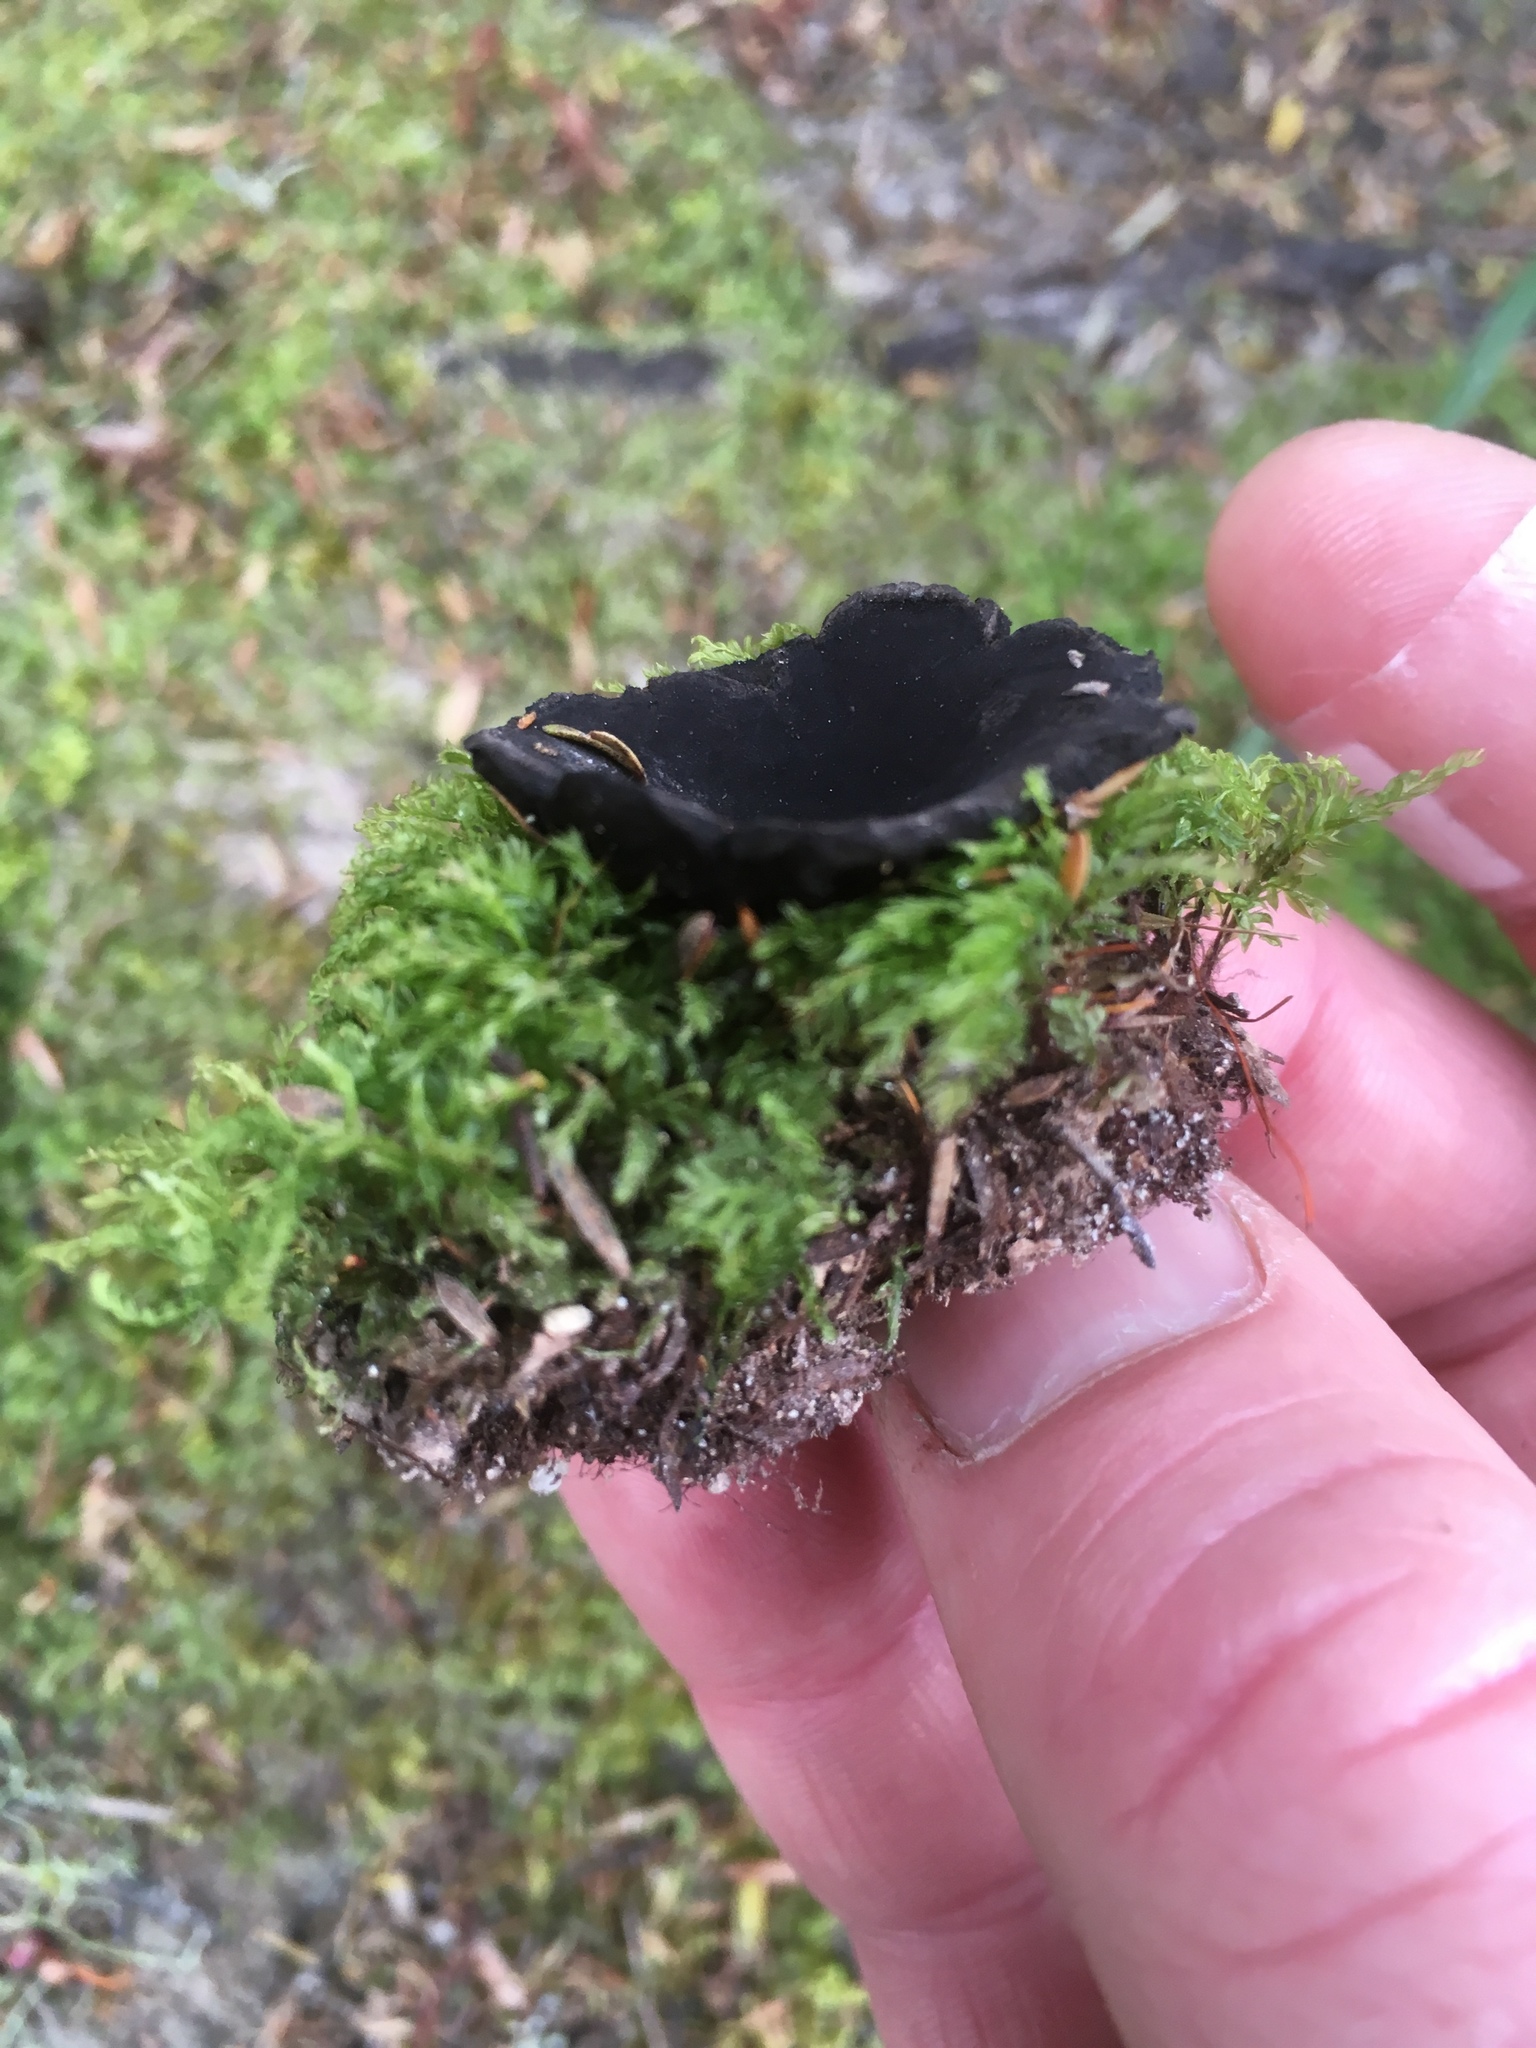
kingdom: Fungi
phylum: Ascomycota
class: Pezizomycetes
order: Pezizales
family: Sarcosomataceae
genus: Plectania
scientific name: Plectania rhytidia
